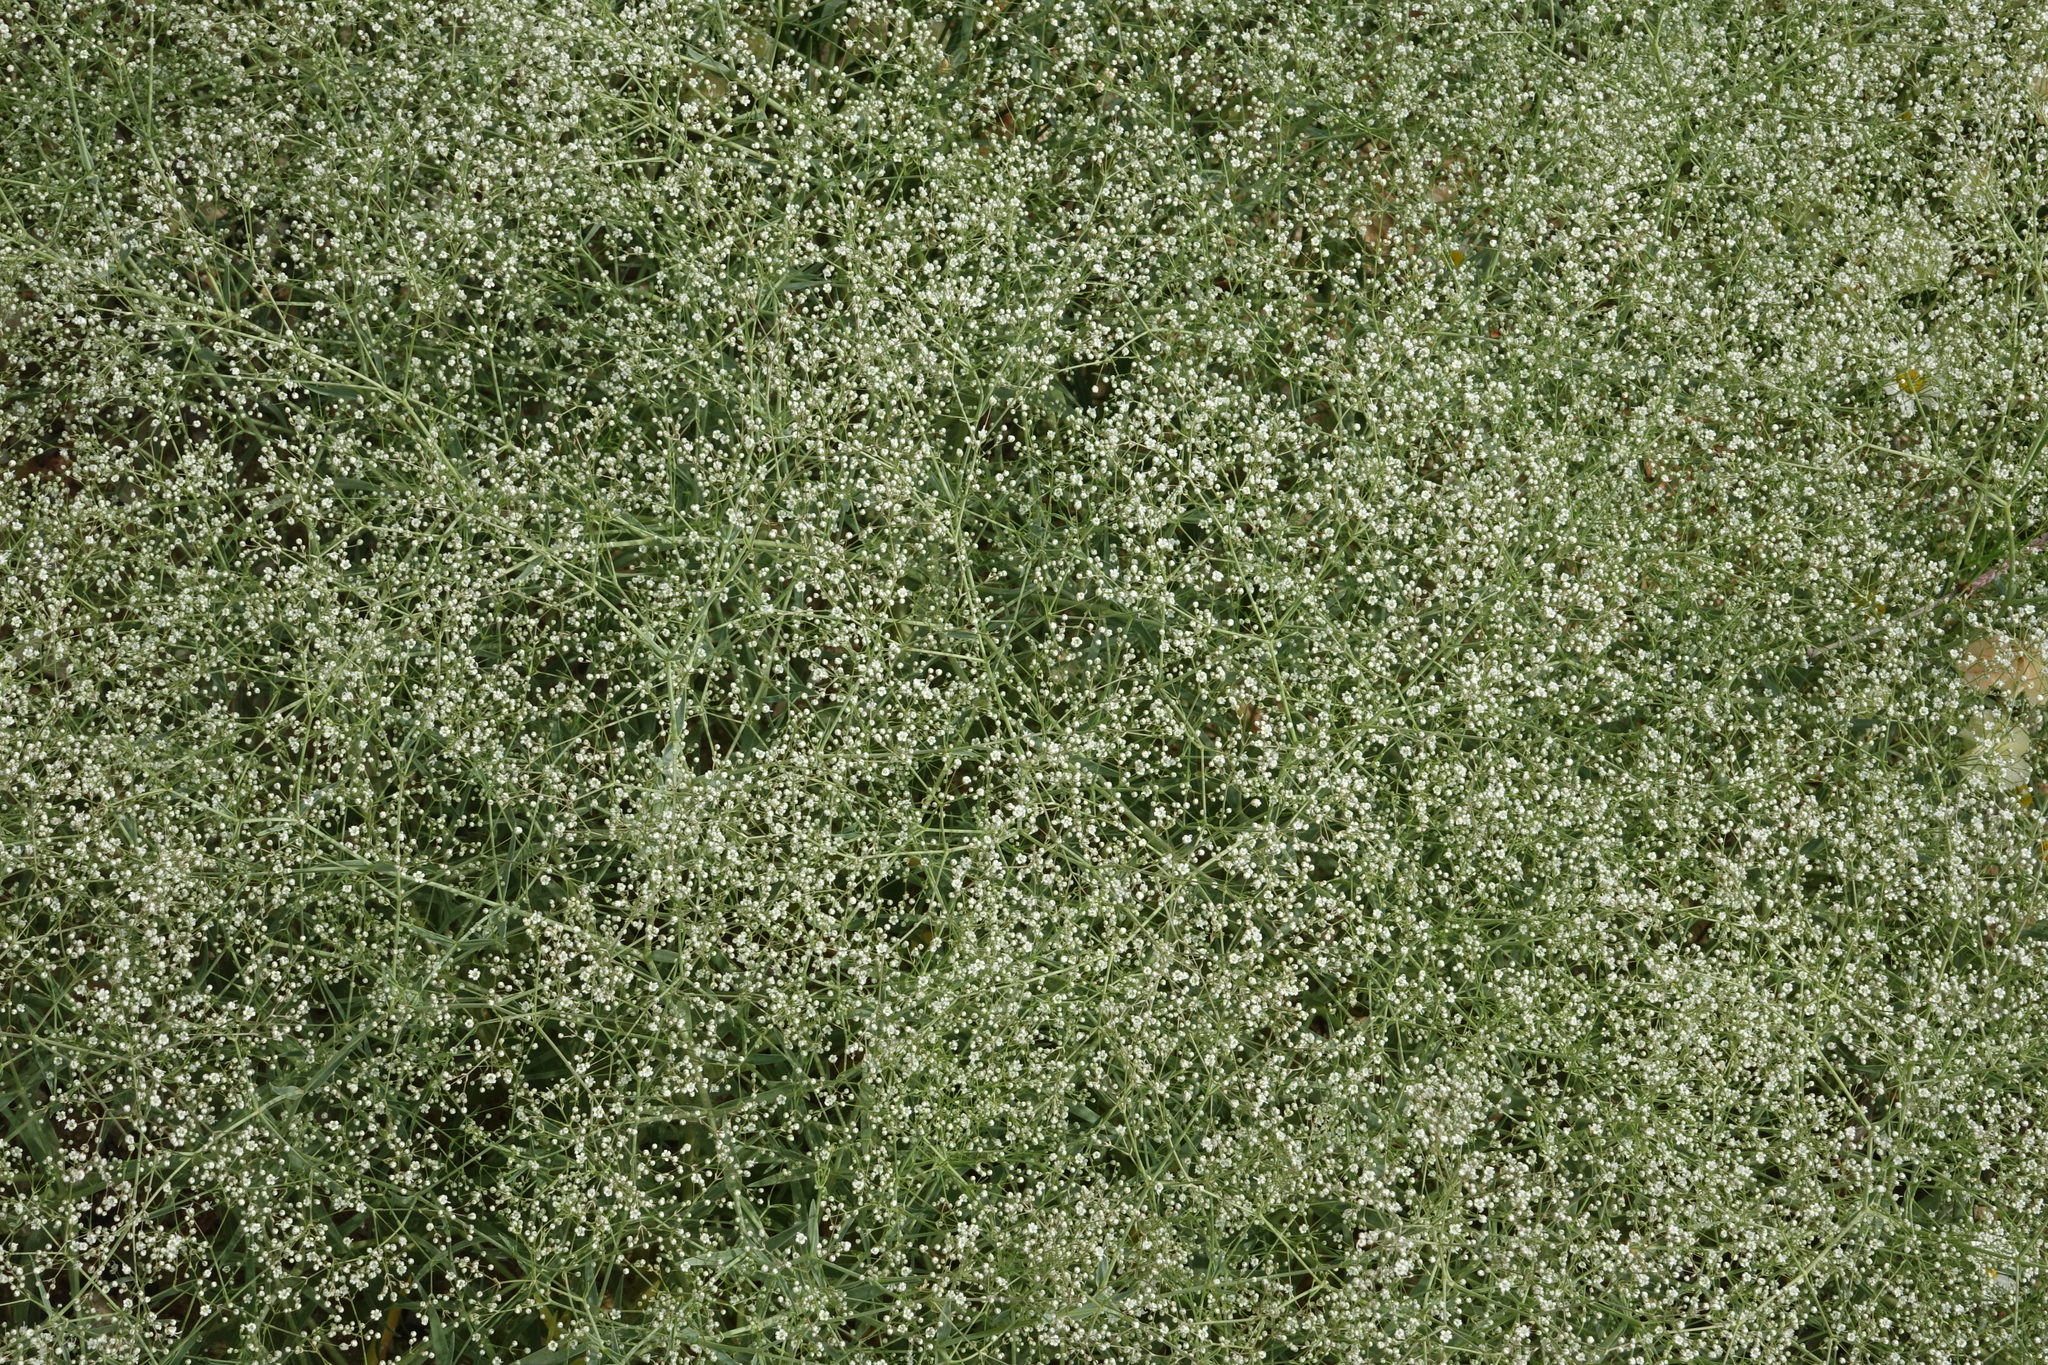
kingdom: Plantae
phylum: Tracheophyta
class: Magnoliopsida
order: Caryophyllales
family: Caryophyllaceae
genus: Gypsophila
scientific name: Gypsophila paniculata
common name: Baby's-breath
